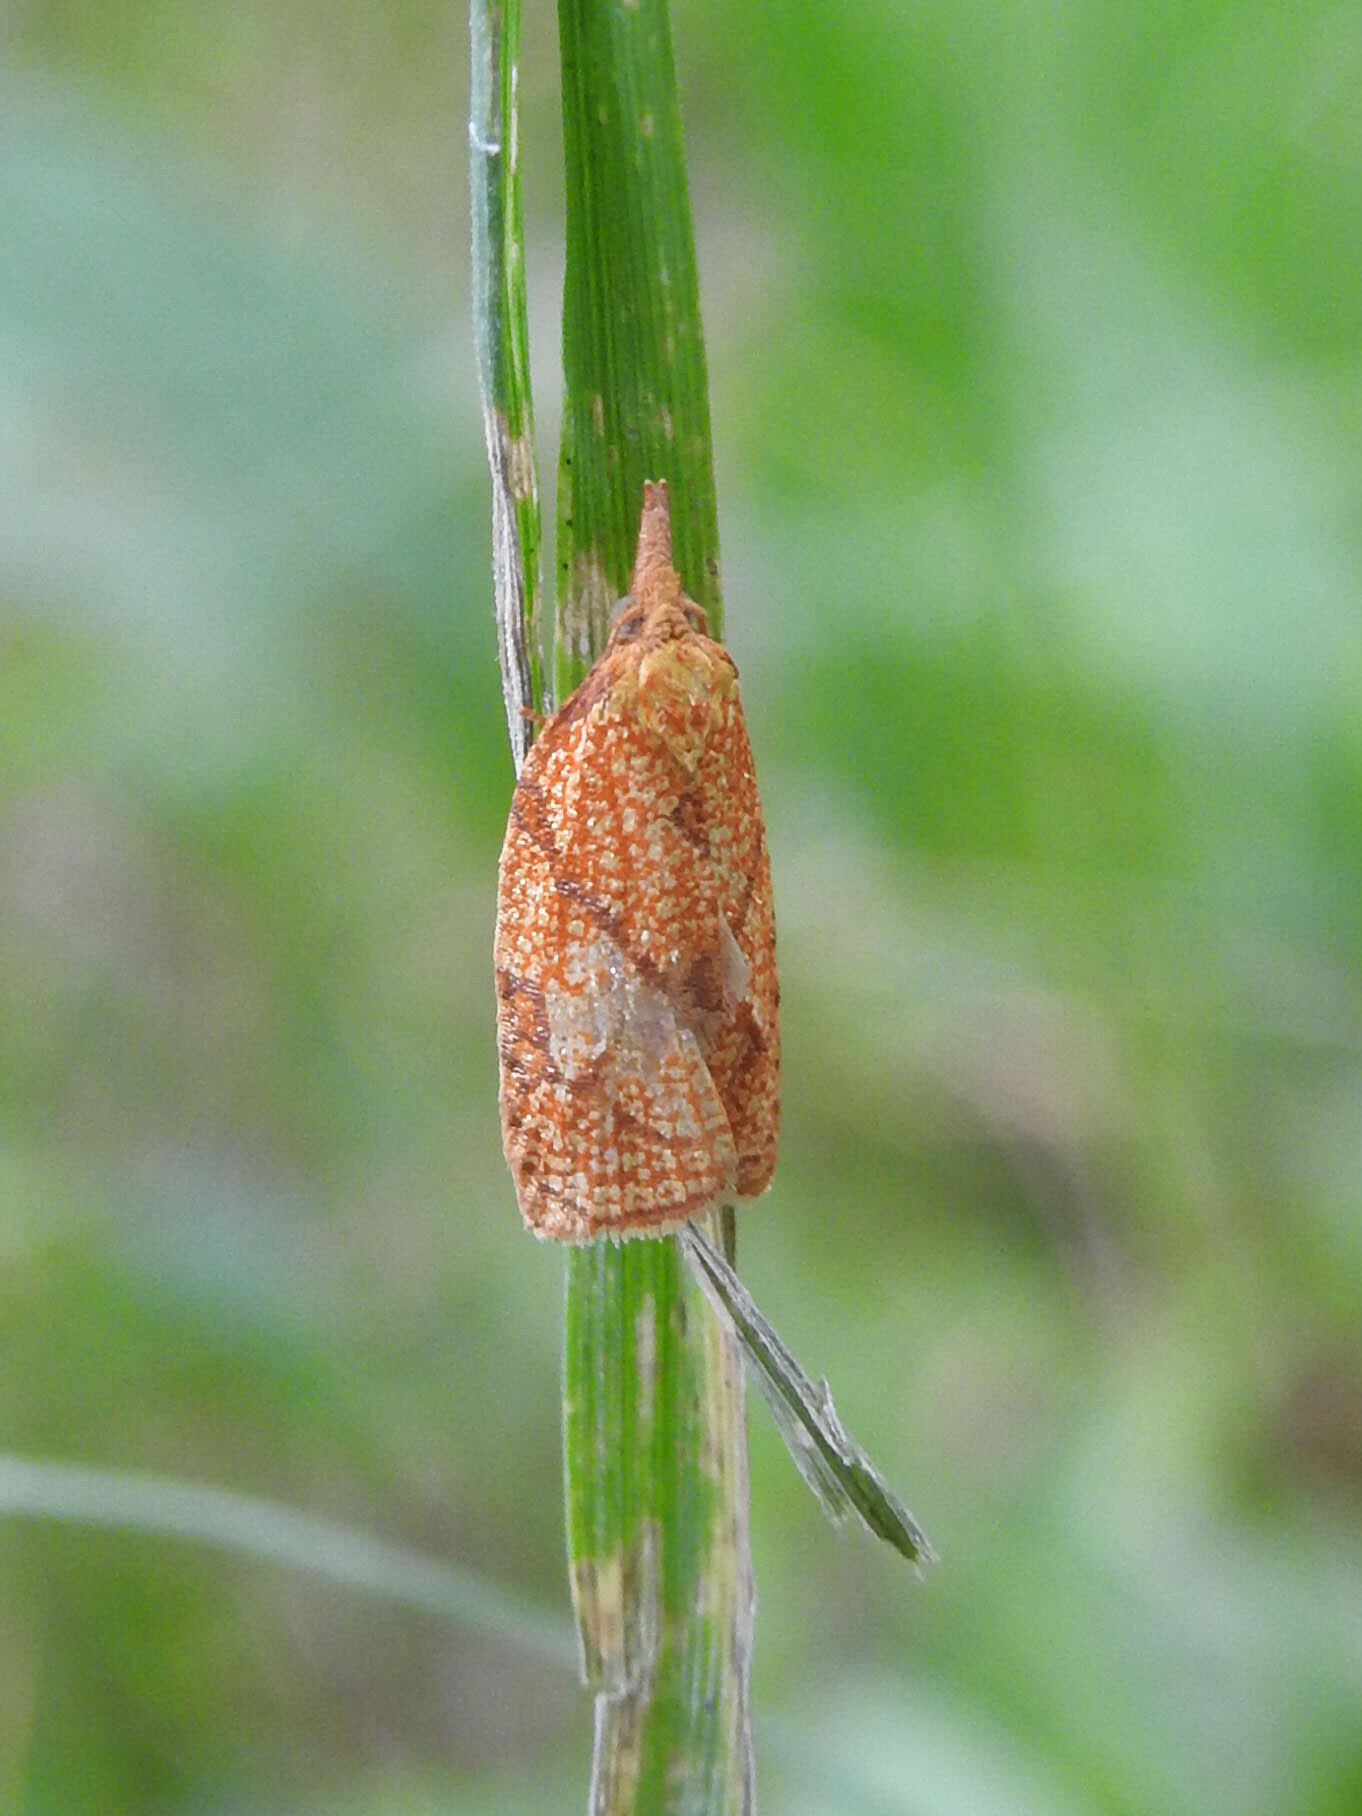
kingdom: Animalia
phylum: Arthropoda
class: Insecta
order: Lepidoptera
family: Tortricidae
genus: Cenopis
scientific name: Cenopis reticulatana
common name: Reticulated fruitworm moth
